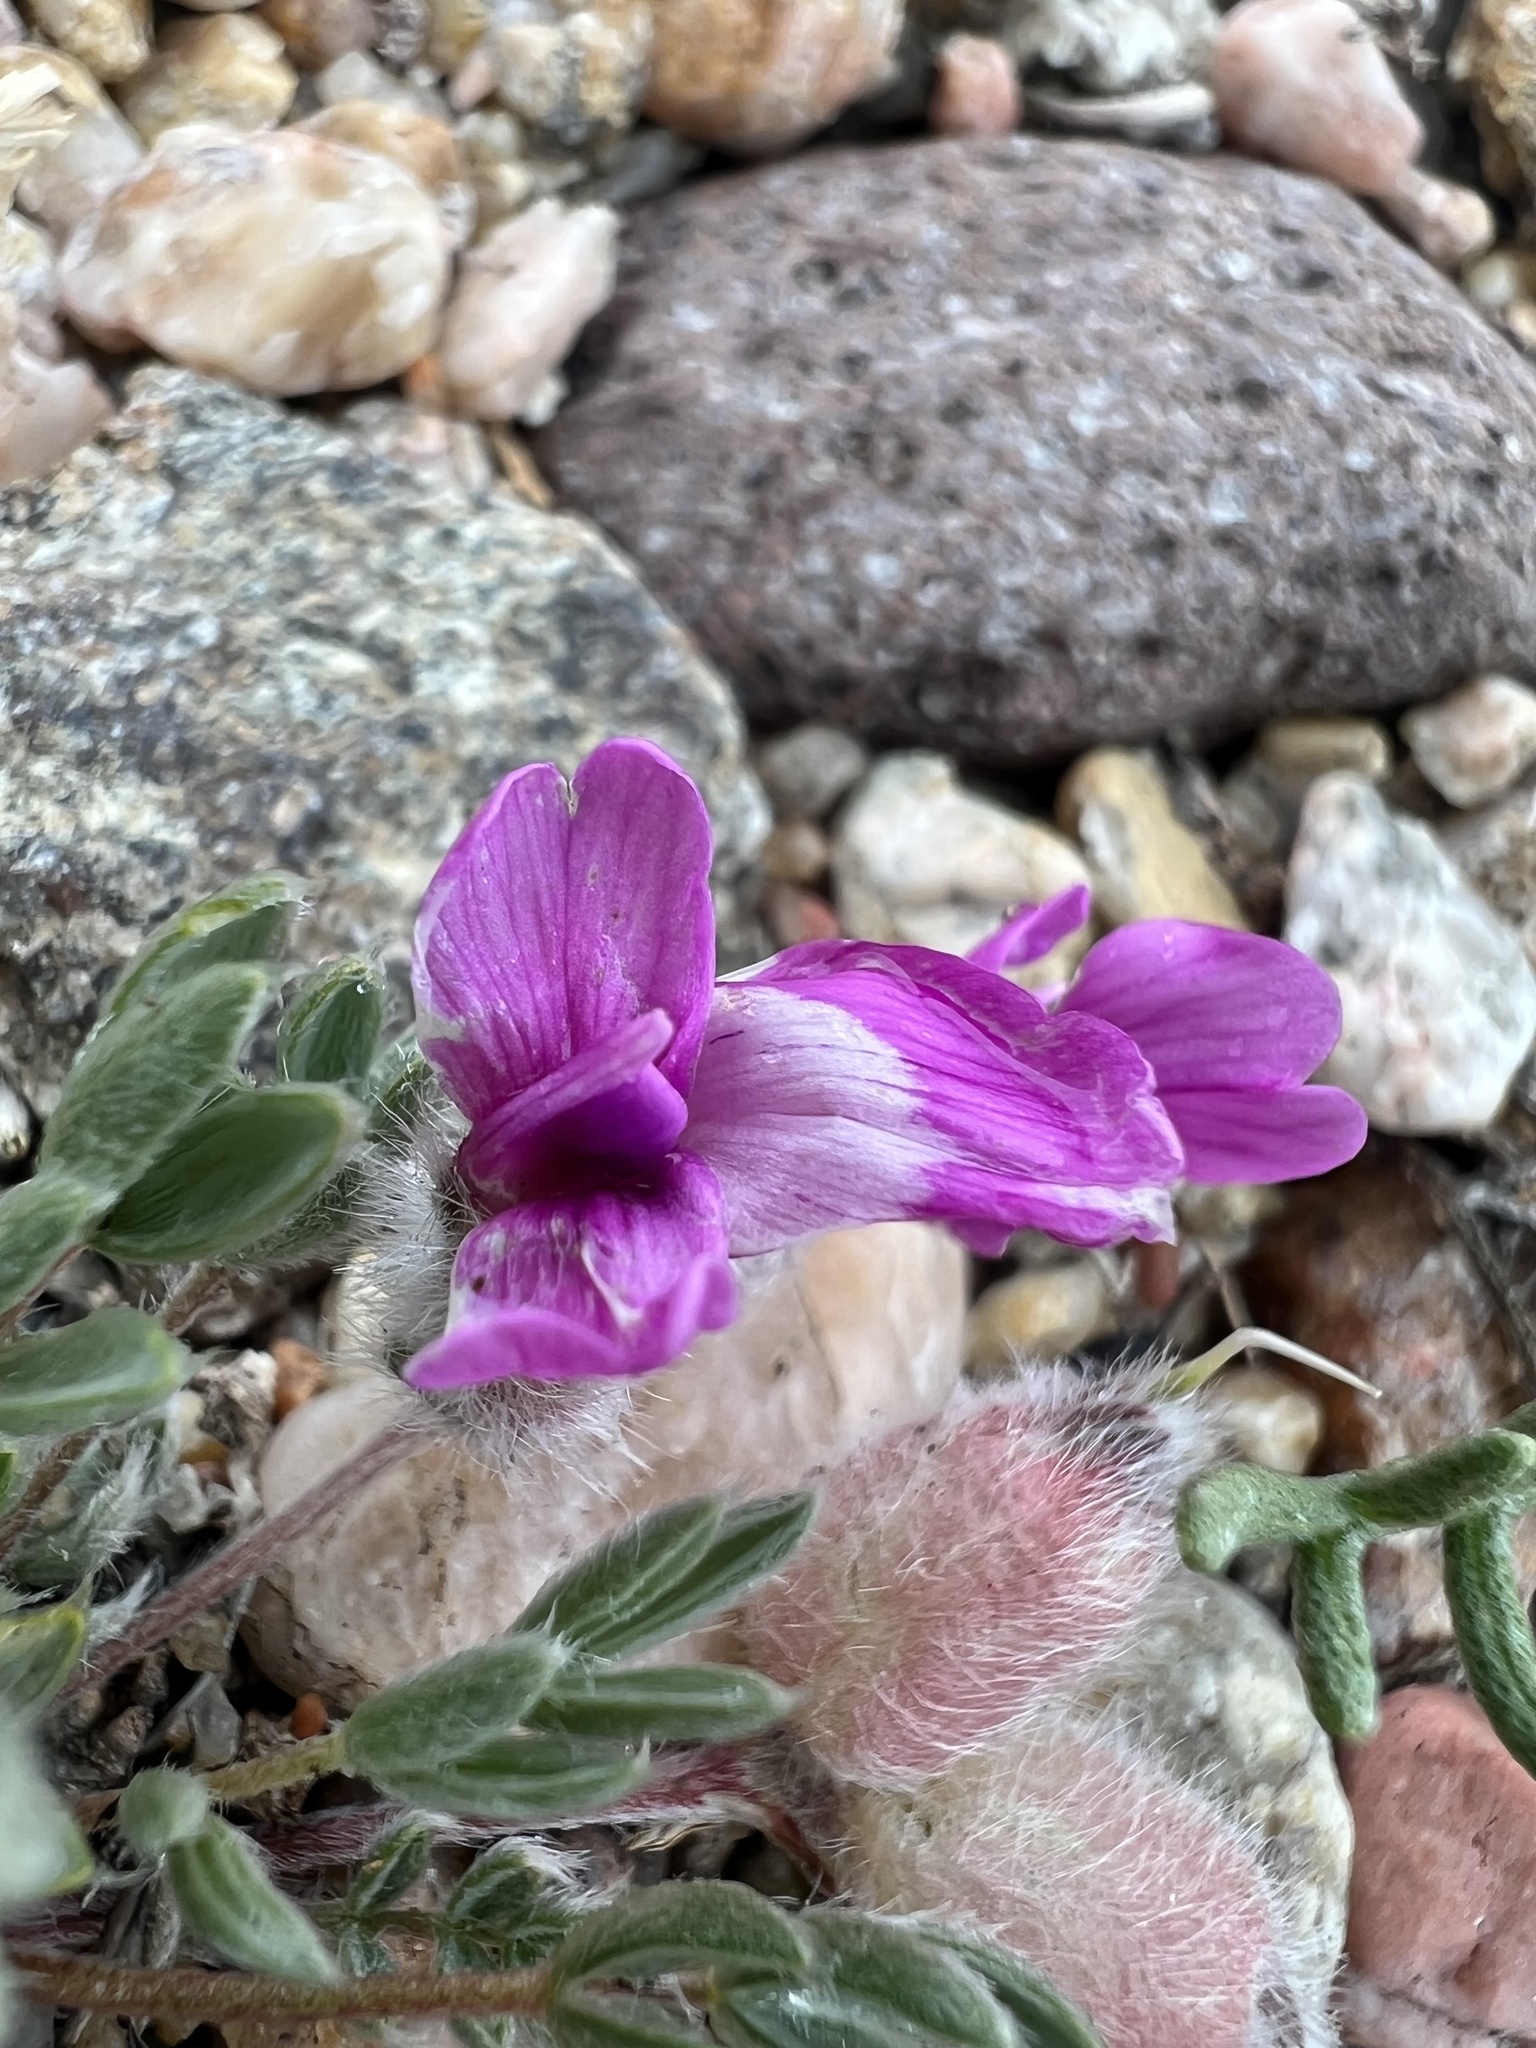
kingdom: Plantae
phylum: Tracheophyta
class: Magnoliopsida
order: Fabales
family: Fabaceae
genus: Oxytropis
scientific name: Oxytropis multiceps
